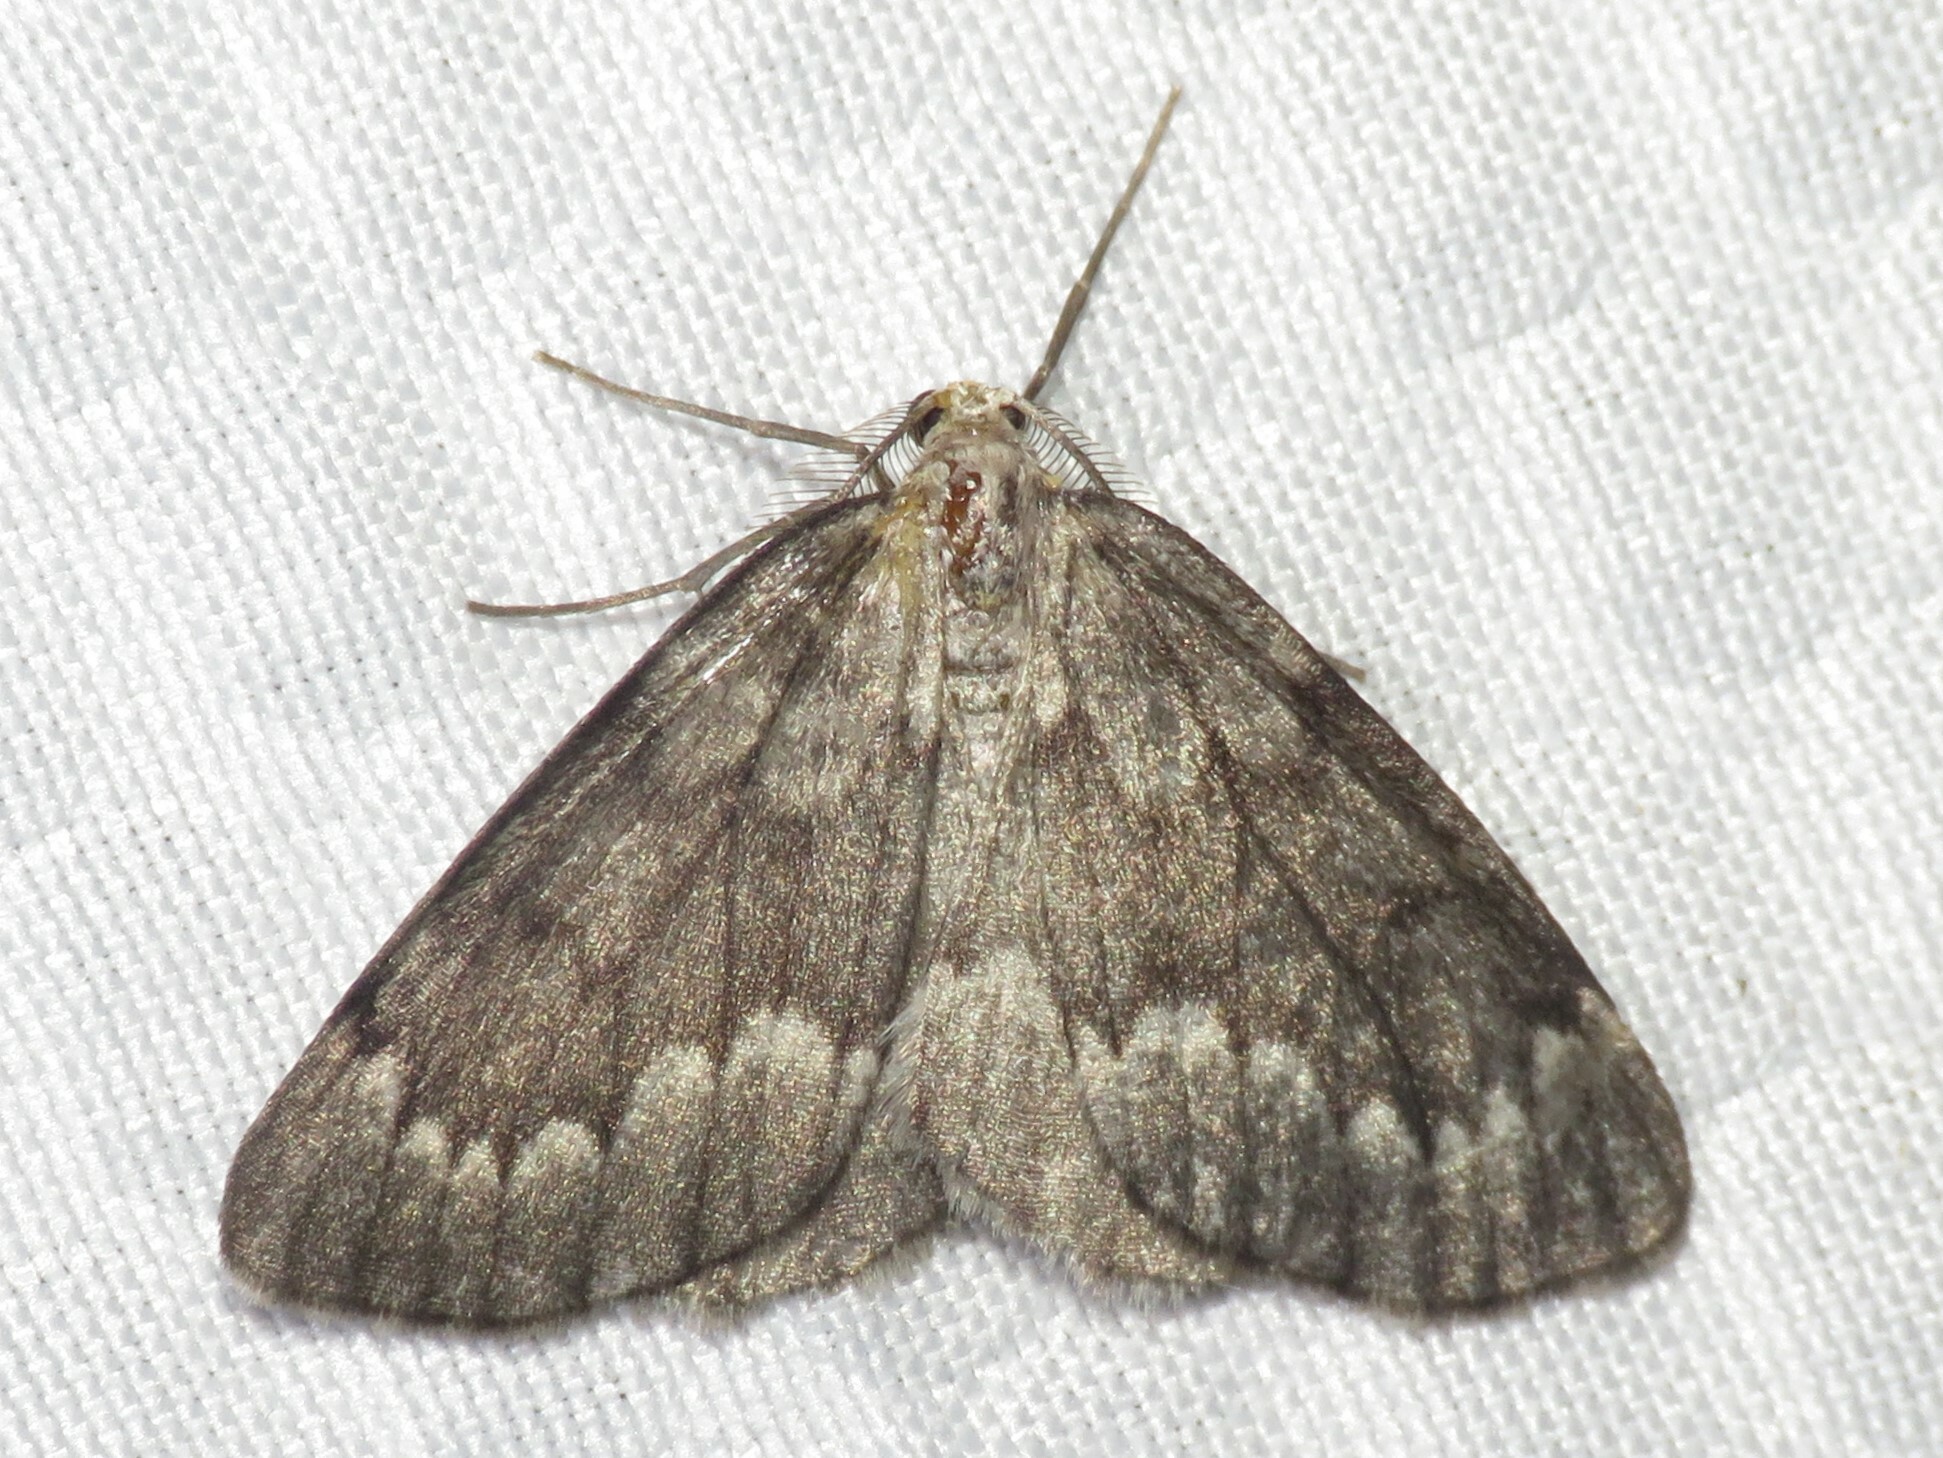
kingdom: Animalia
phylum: Arthropoda
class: Insecta
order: Lepidoptera
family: Geometridae
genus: Nepytia
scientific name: Nepytia canosaria
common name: False hemlock looper
